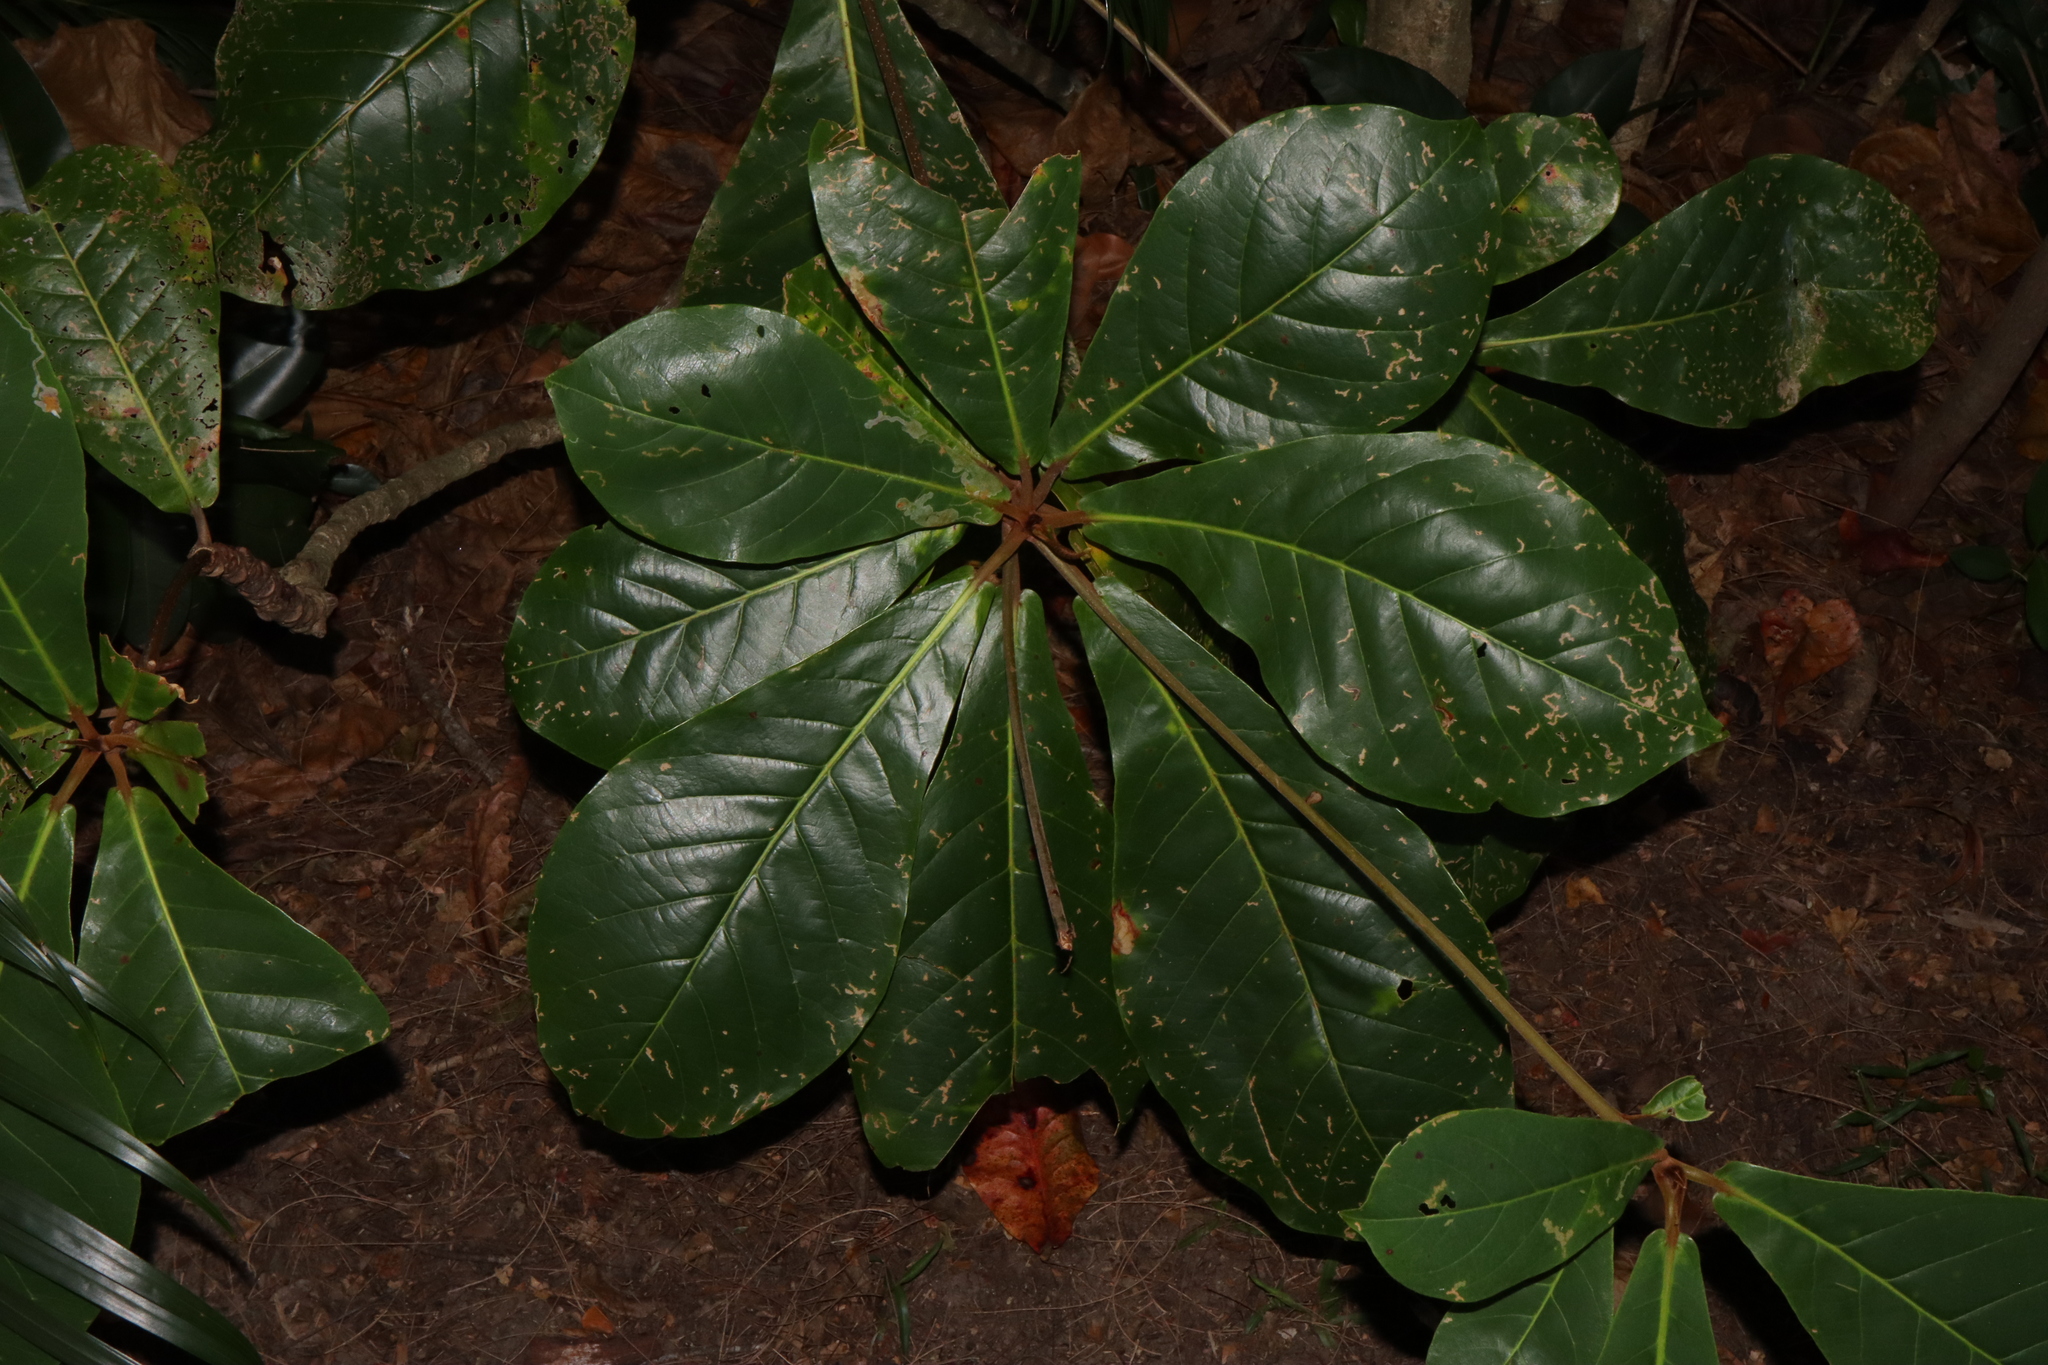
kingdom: Plantae
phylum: Tracheophyta
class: Magnoliopsida
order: Myrtales
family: Combretaceae
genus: Terminalia
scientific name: Terminalia catappa
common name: Tropical almond
